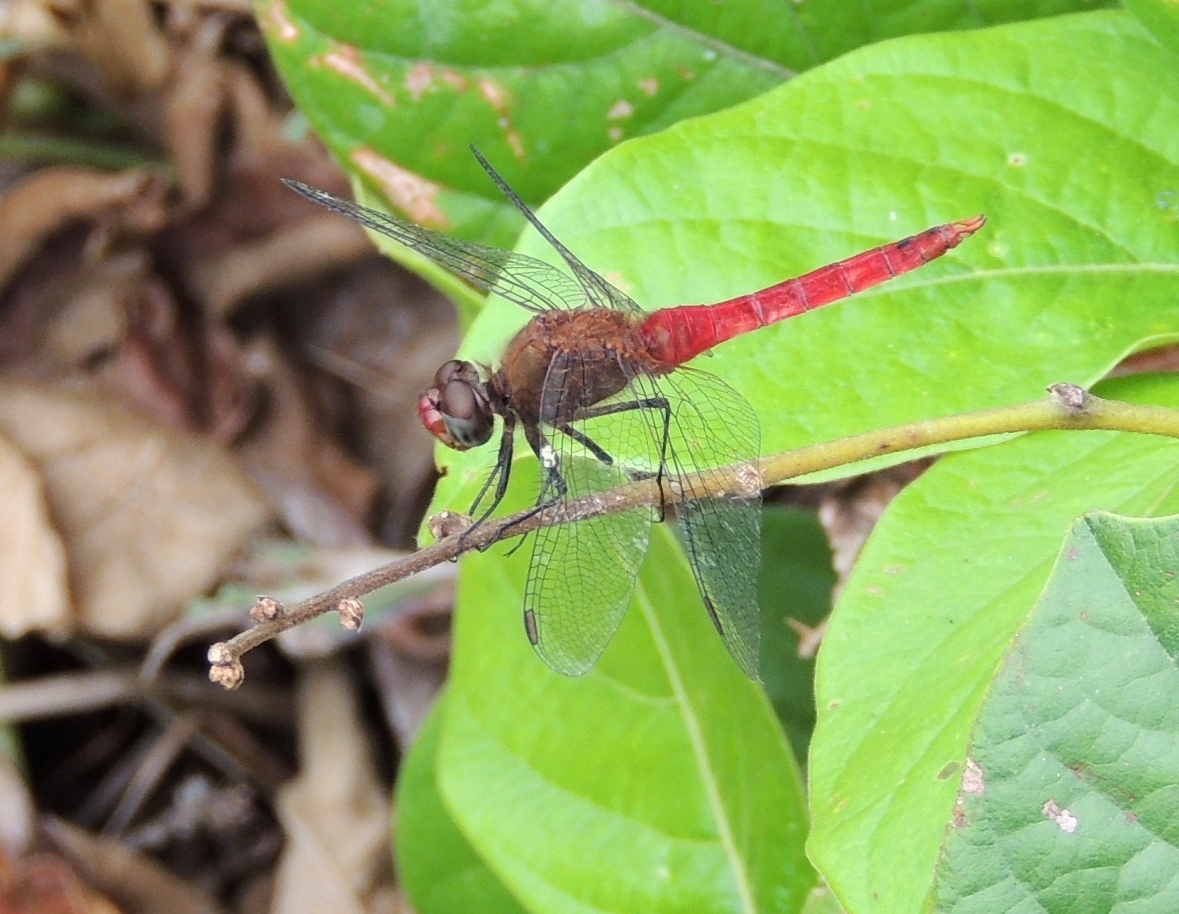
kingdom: Animalia
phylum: Arthropoda
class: Insecta
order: Odonata
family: Libellulidae
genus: Brachymesia
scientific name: Brachymesia furcata
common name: Red-taled pennant
